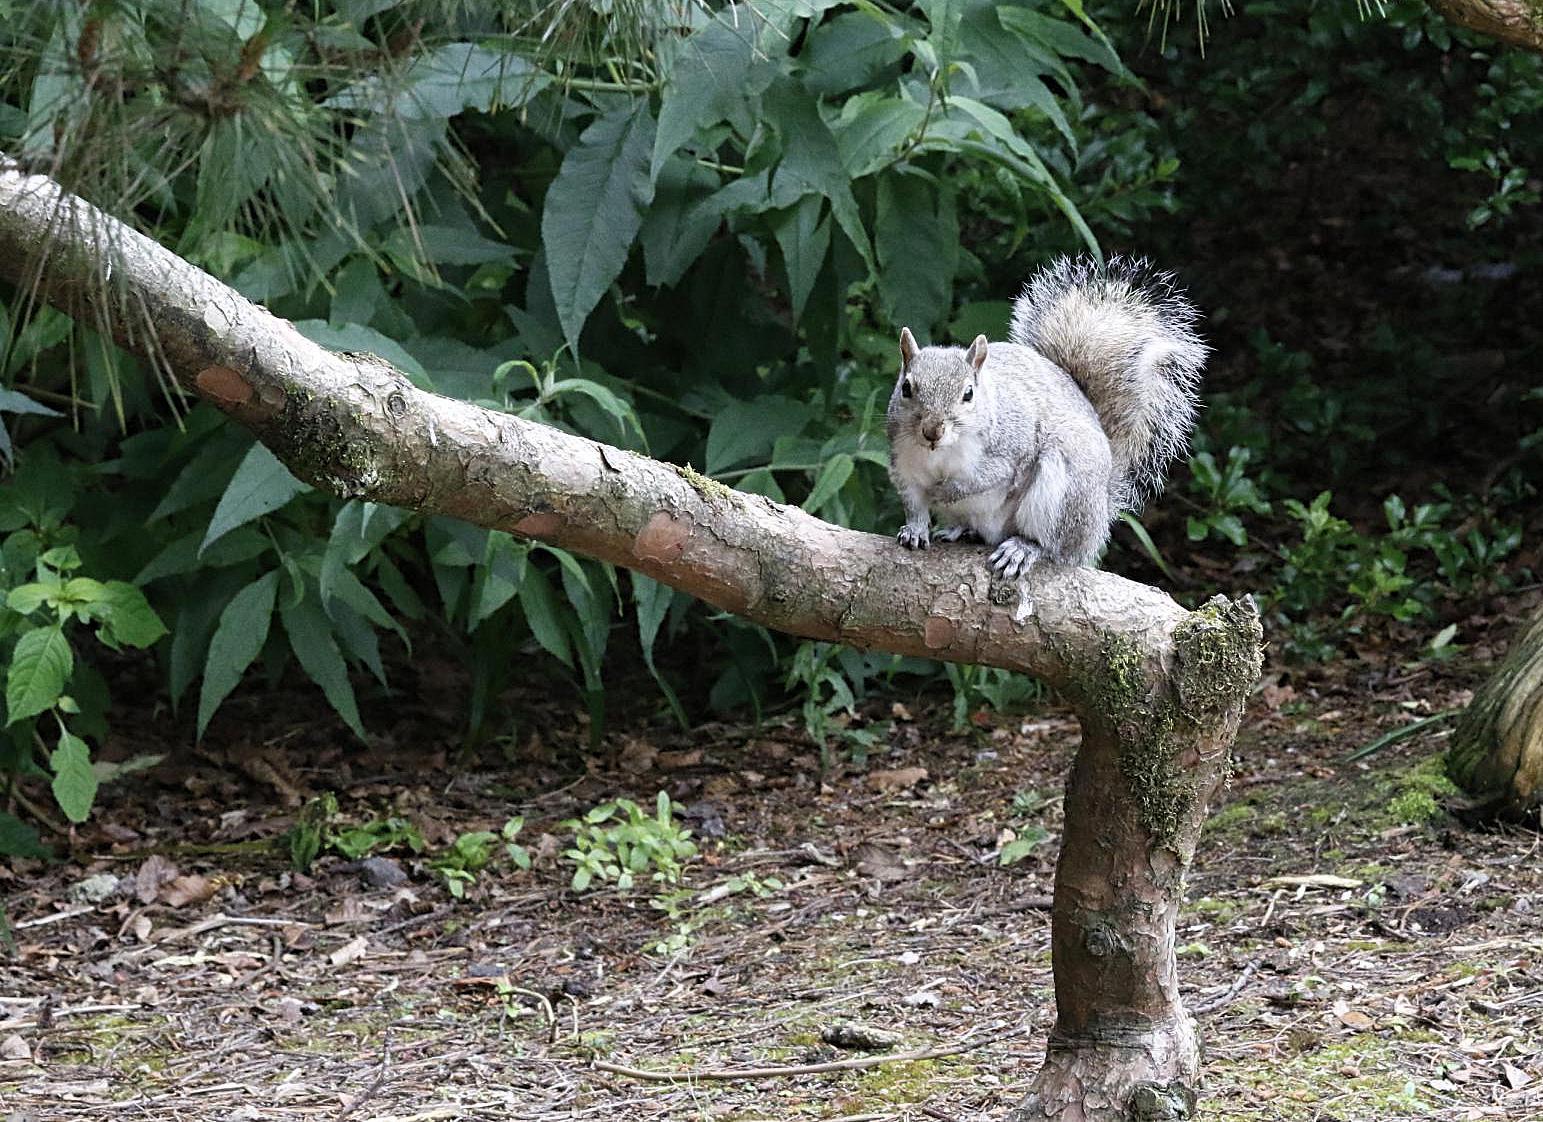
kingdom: Animalia
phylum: Chordata
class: Mammalia
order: Rodentia
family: Sciuridae
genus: Sciurus
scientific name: Sciurus carolinensis
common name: Eastern gray squirrel
